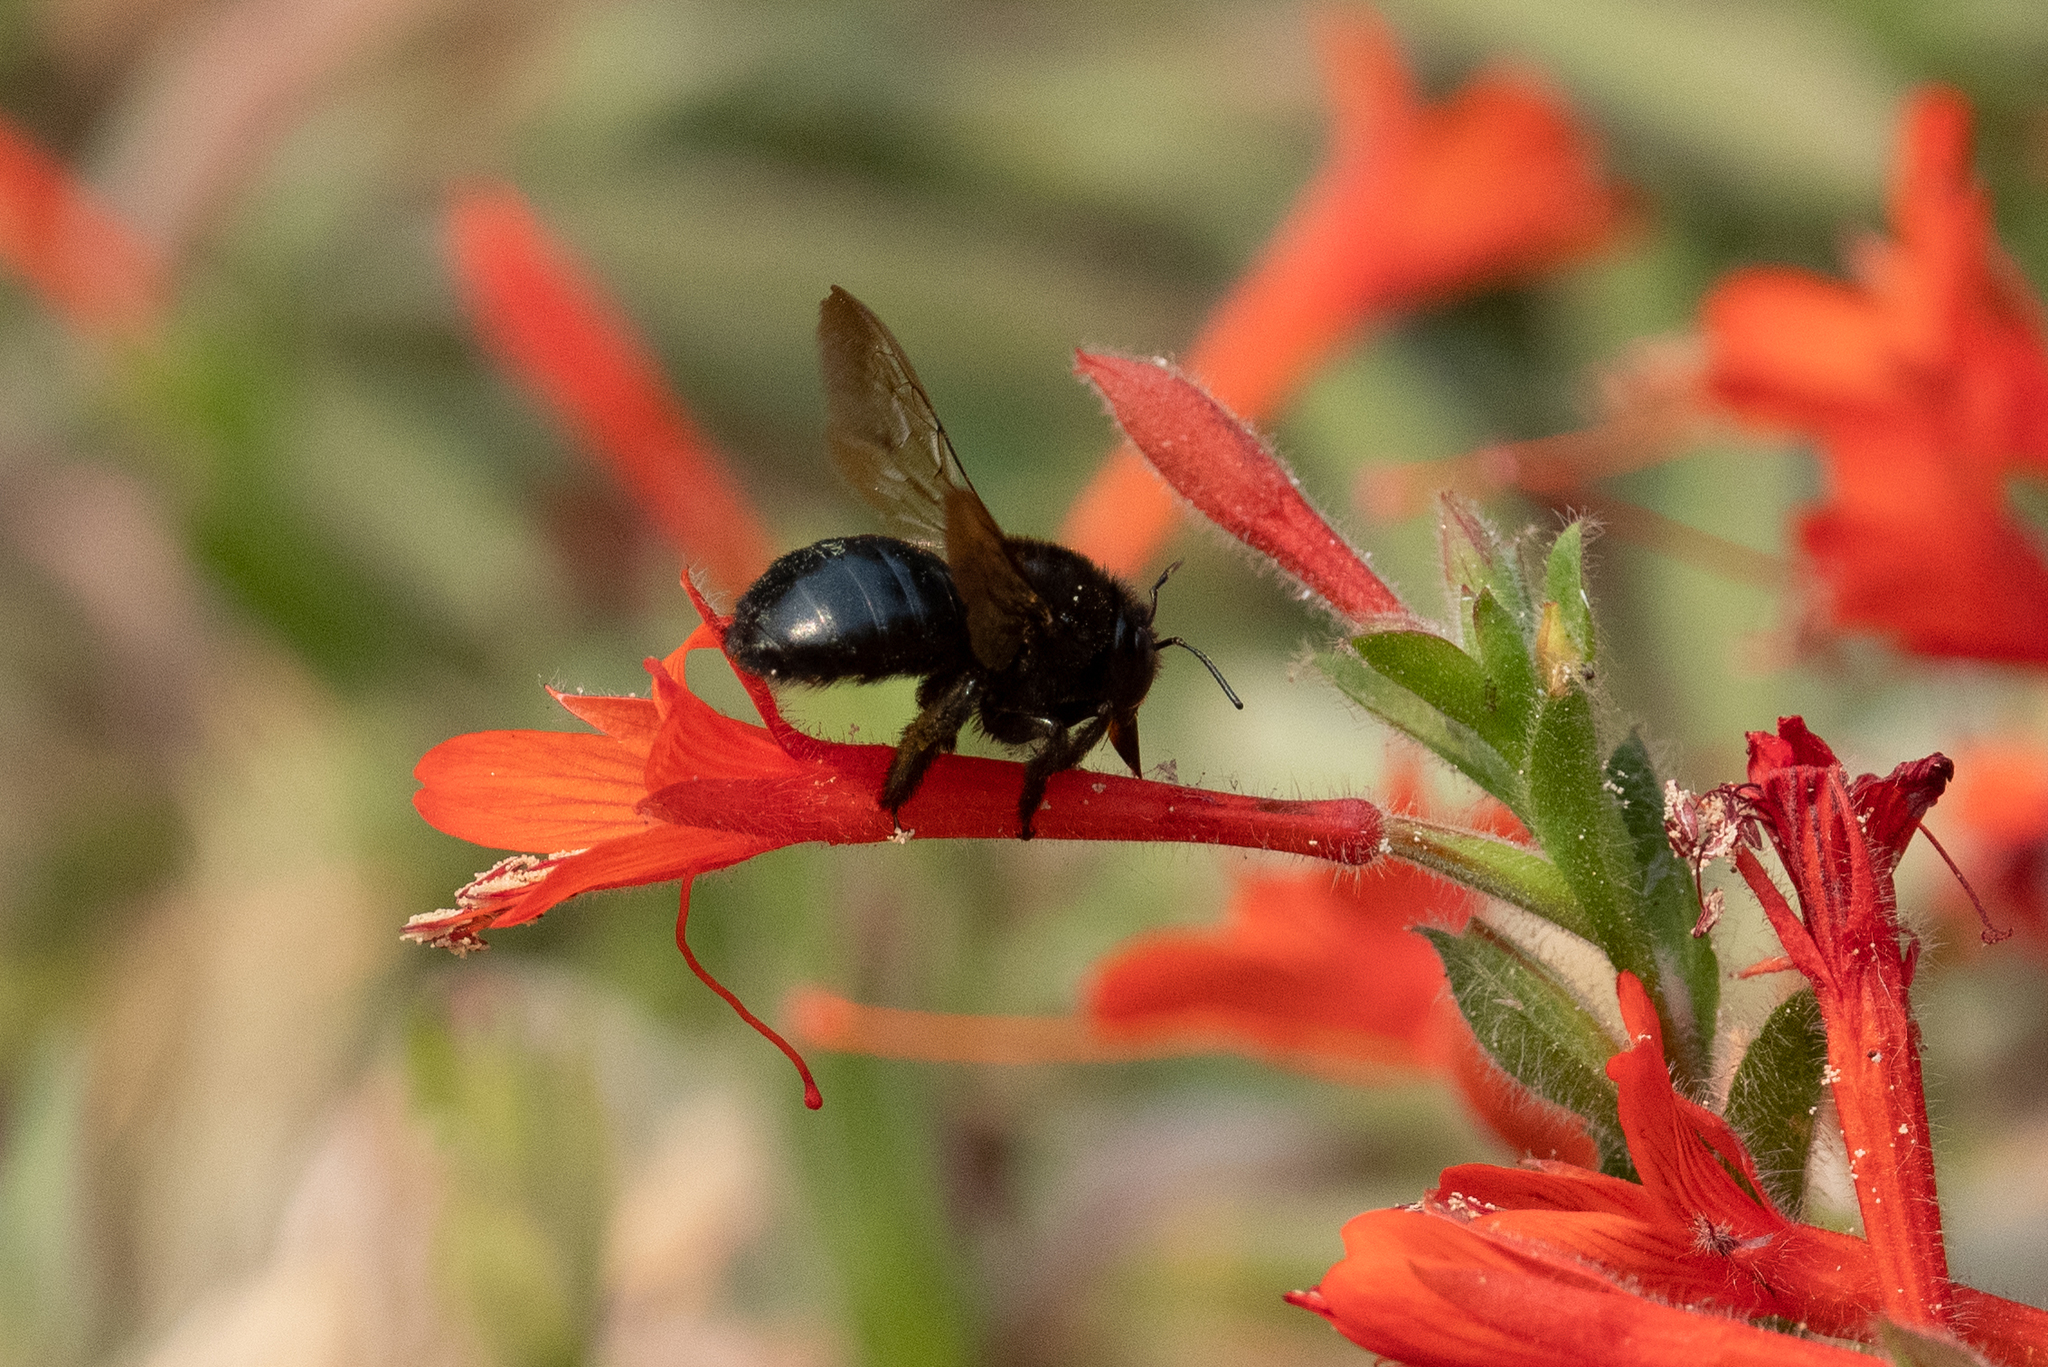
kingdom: Animalia
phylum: Arthropoda
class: Insecta
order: Hymenoptera
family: Apidae
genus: Xylocopa
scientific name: Xylocopa tabaniformis
